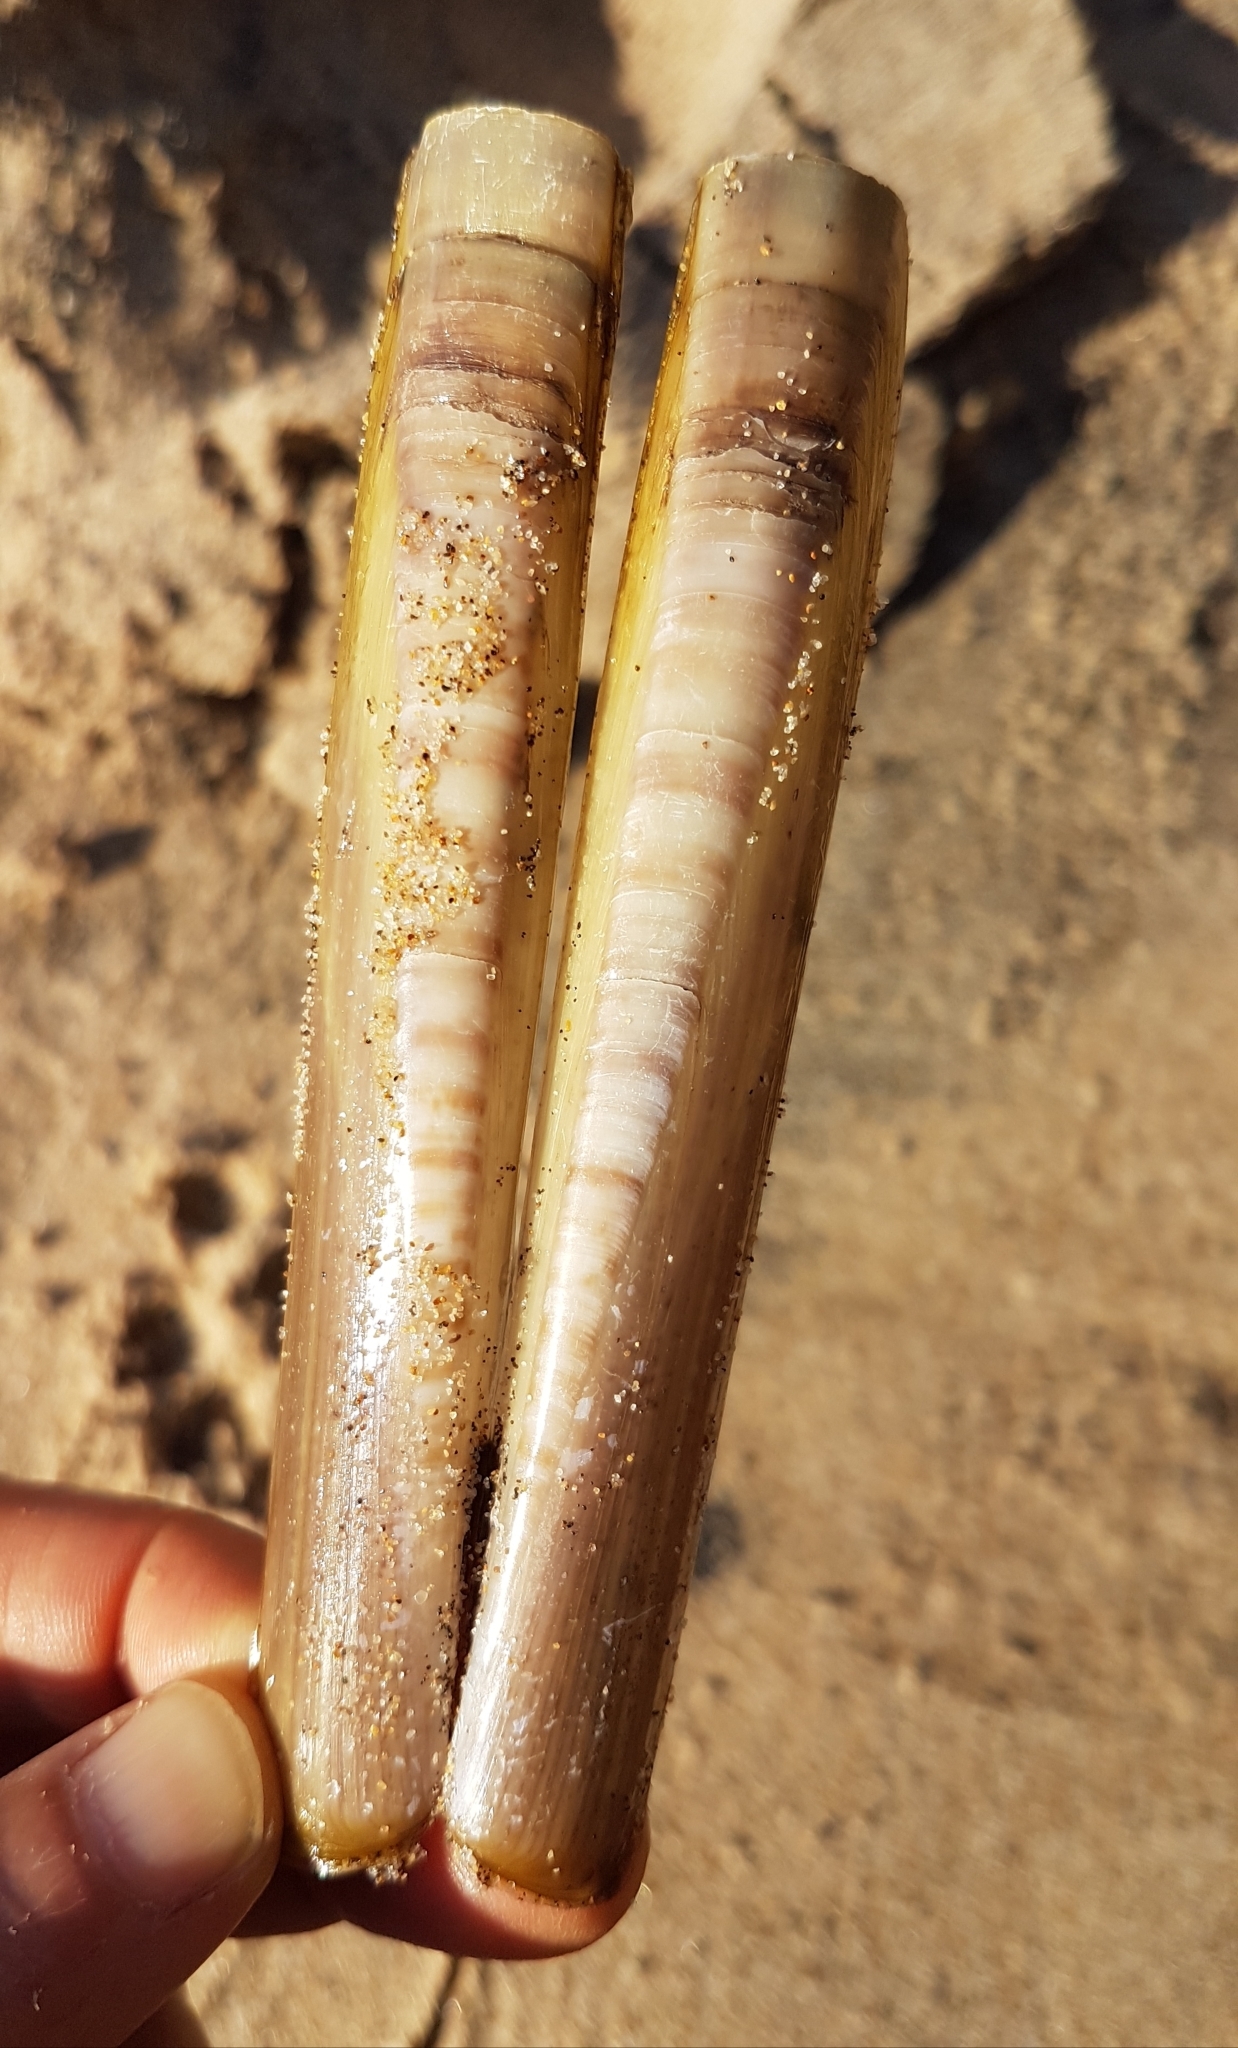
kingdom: Animalia
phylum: Mollusca
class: Bivalvia
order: Adapedonta
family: Pharidae
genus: Ensis
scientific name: Ensis siliqua
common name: Pod razor shell
